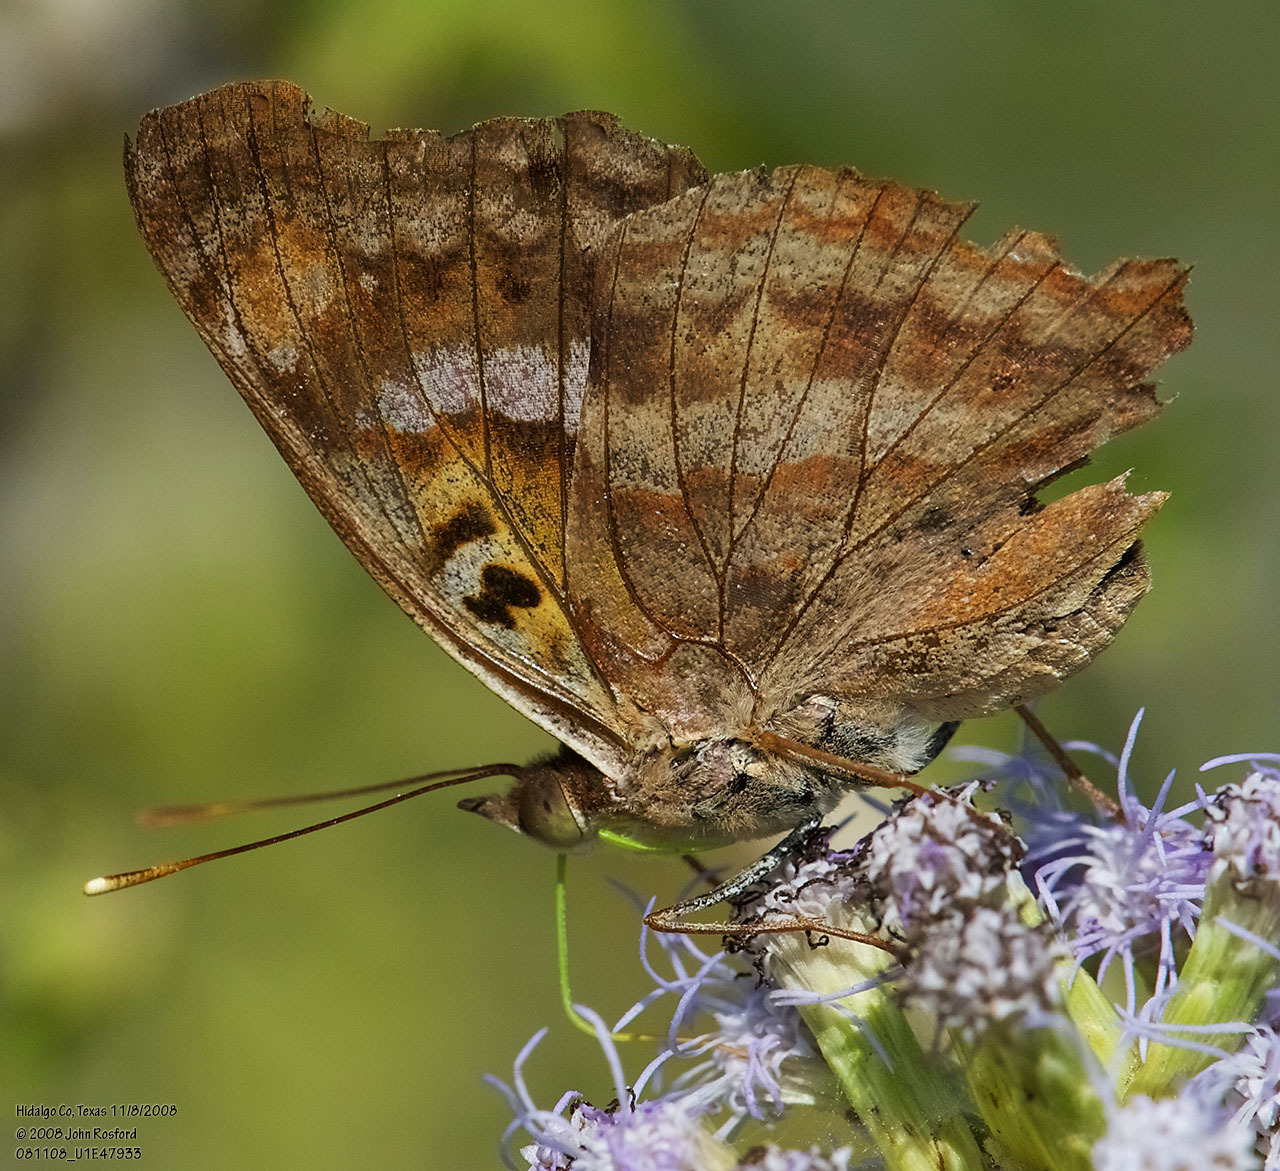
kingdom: Animalia
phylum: Arthropoda
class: Insecta
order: Lepidoptera
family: Nymphalidae
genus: Doxocopa
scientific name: Doxocopa pavon
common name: Pavon emperor
